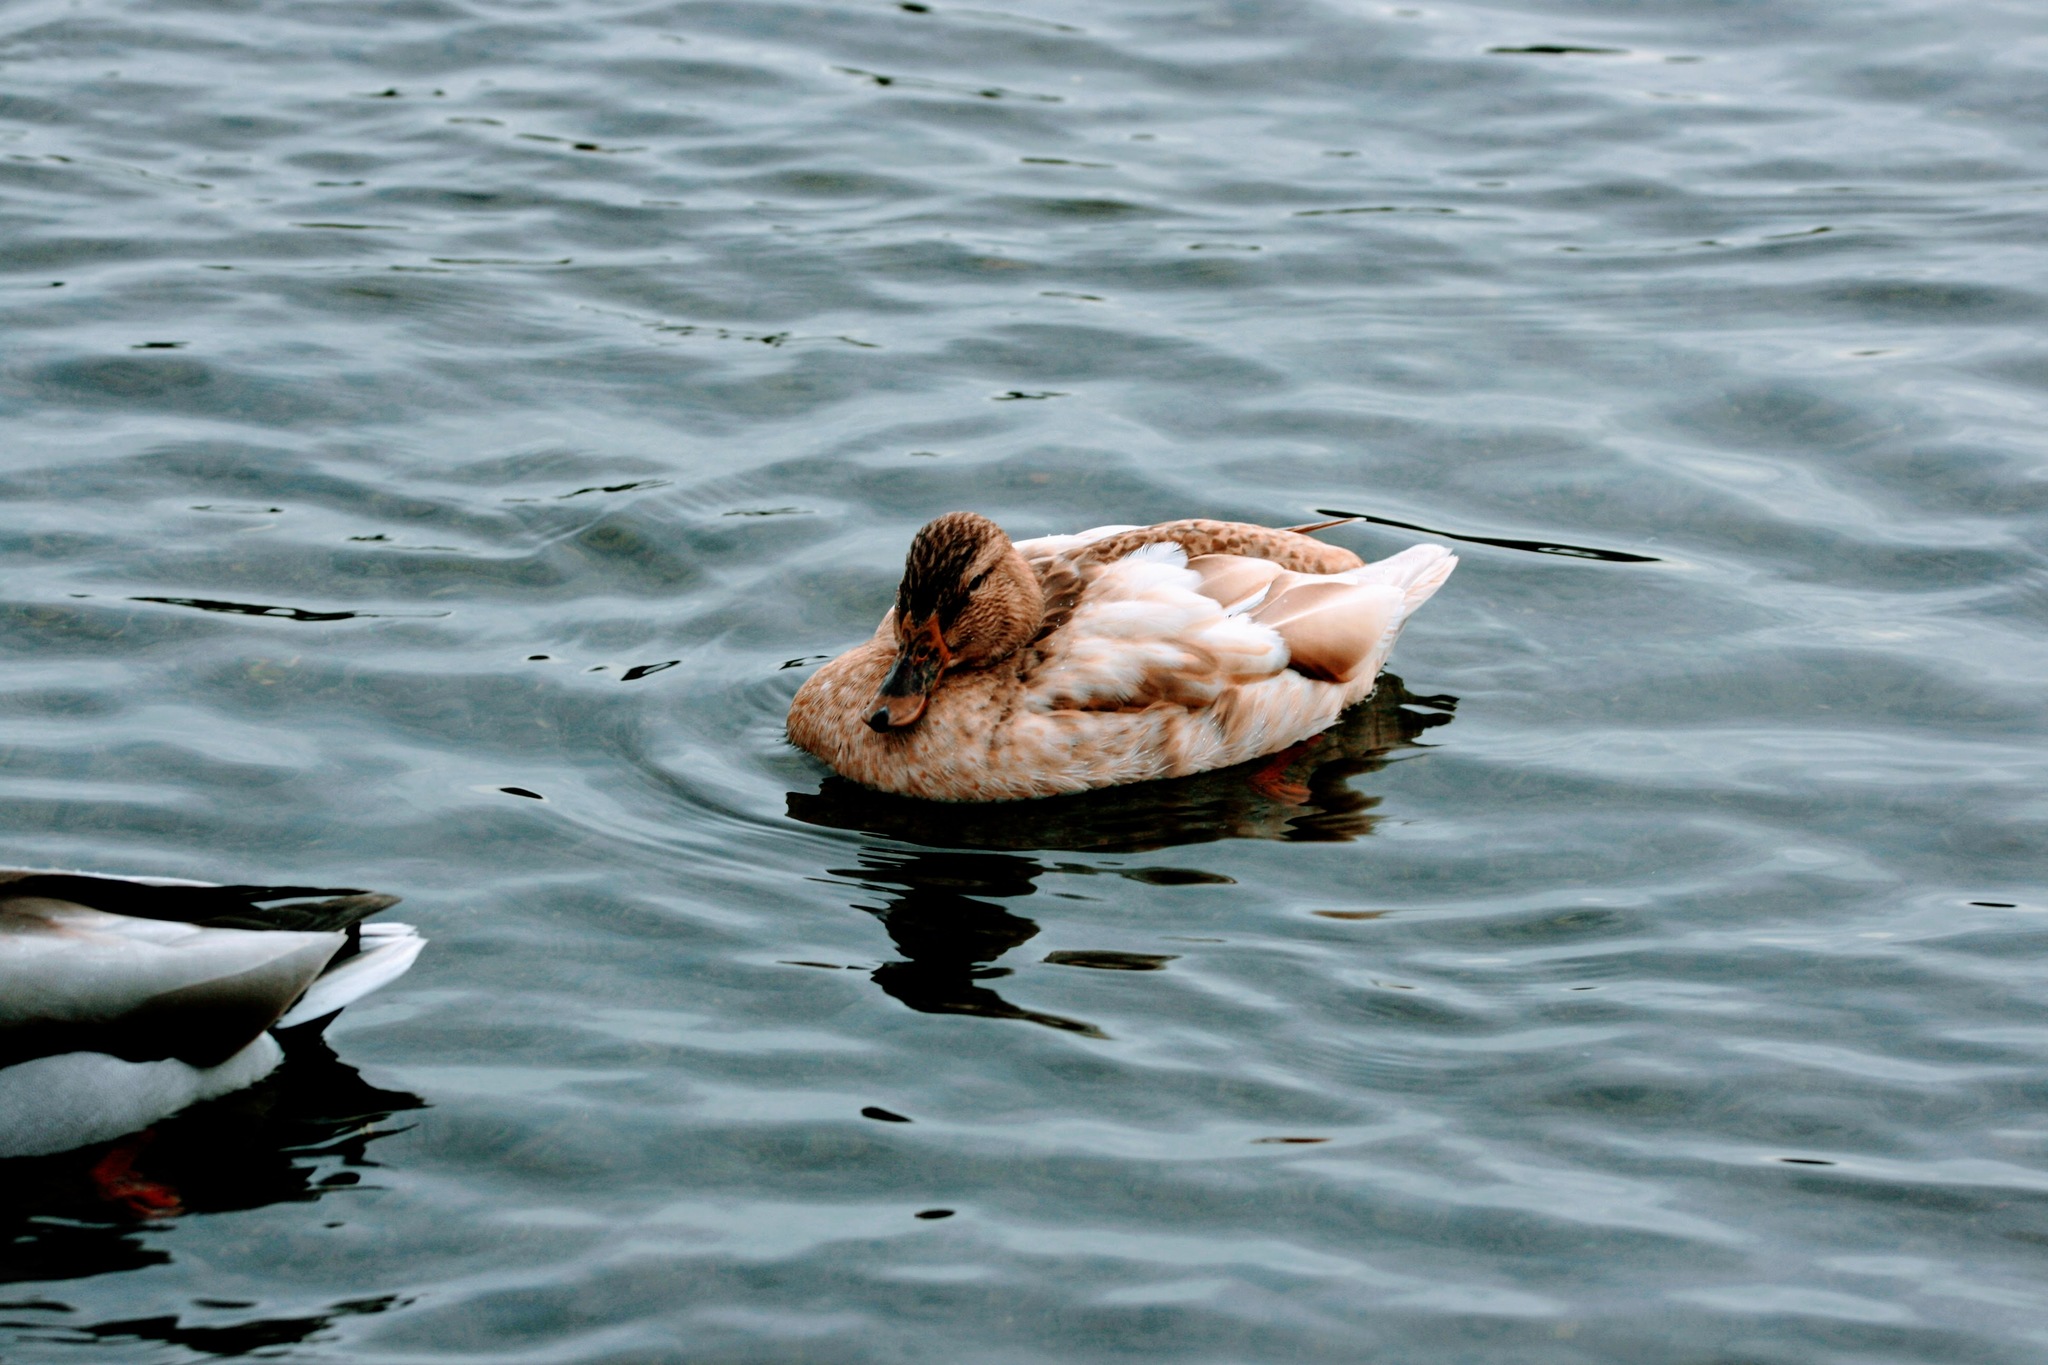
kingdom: Animalia
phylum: Chordata
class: Aves
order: Anseriformes
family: Anatidae
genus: Anas
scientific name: Anas platyrhynchos
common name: Mallard
